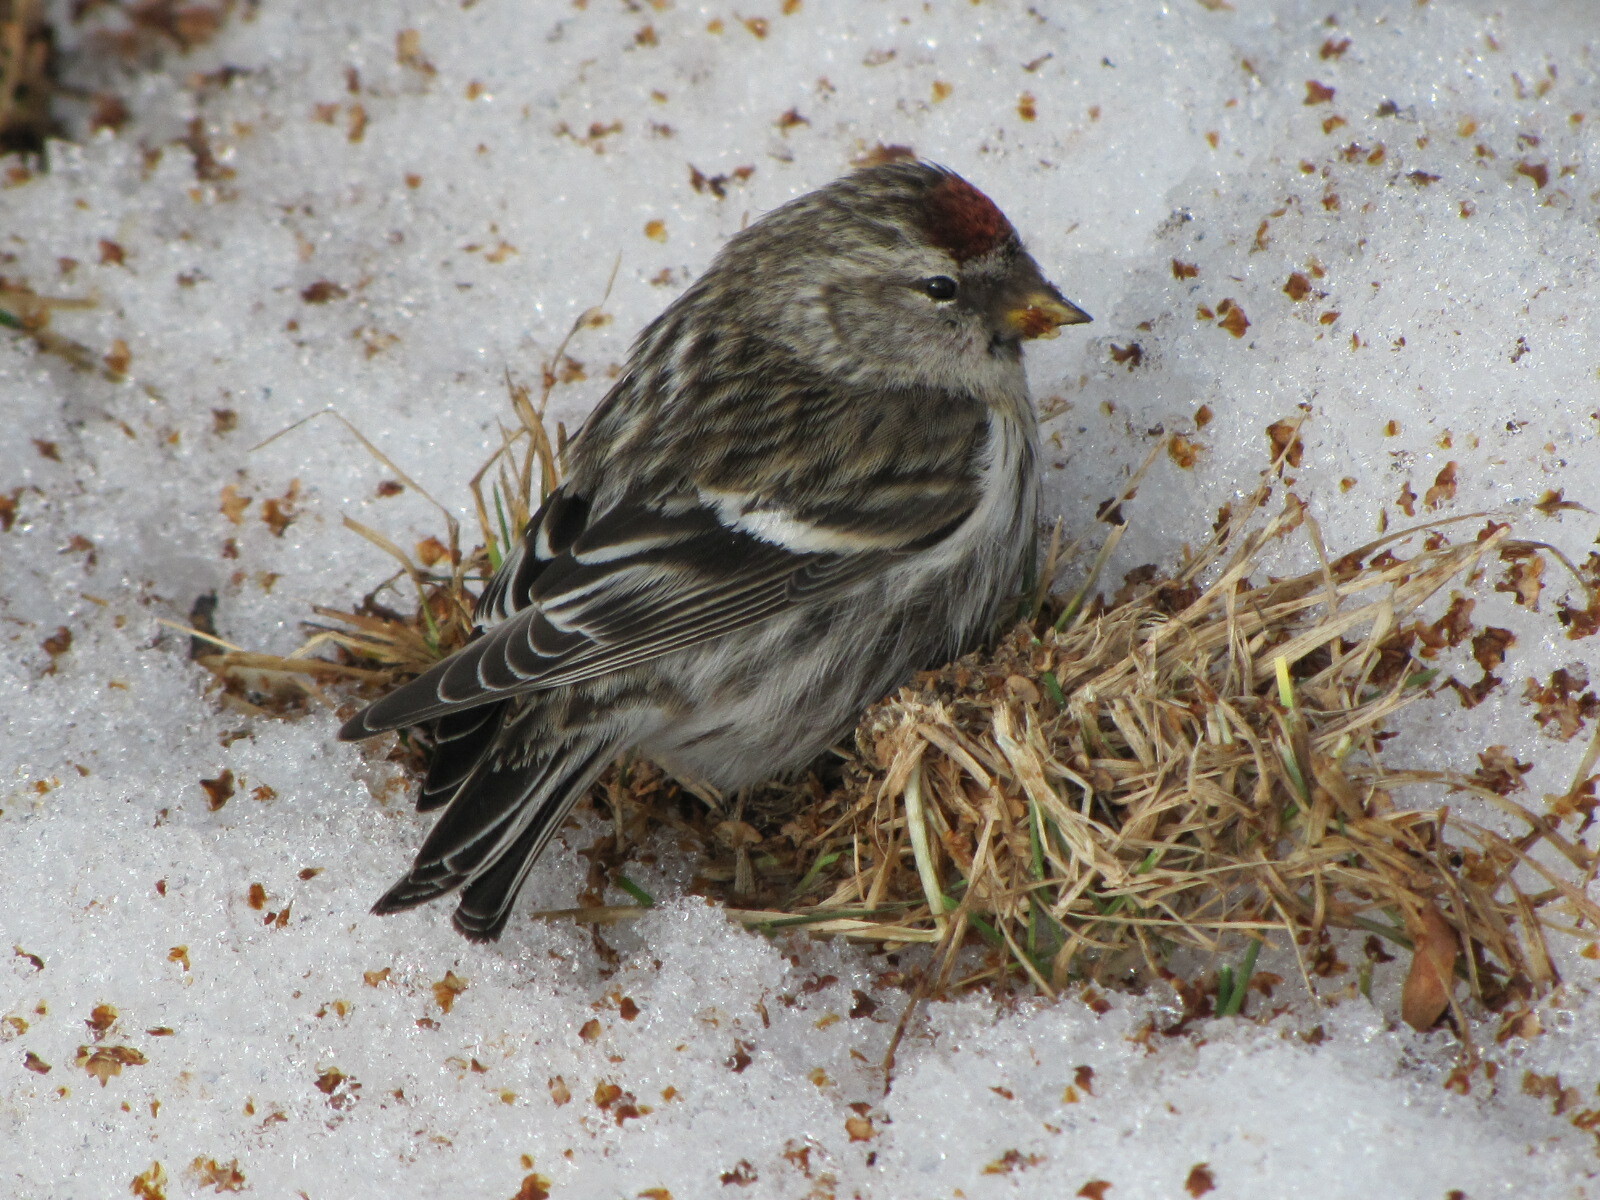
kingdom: Animalia
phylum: Chordata
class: Aves
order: Passeriformes
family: Fringillidae
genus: Acanthis
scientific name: Acanthis flammea
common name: Common redpoll
